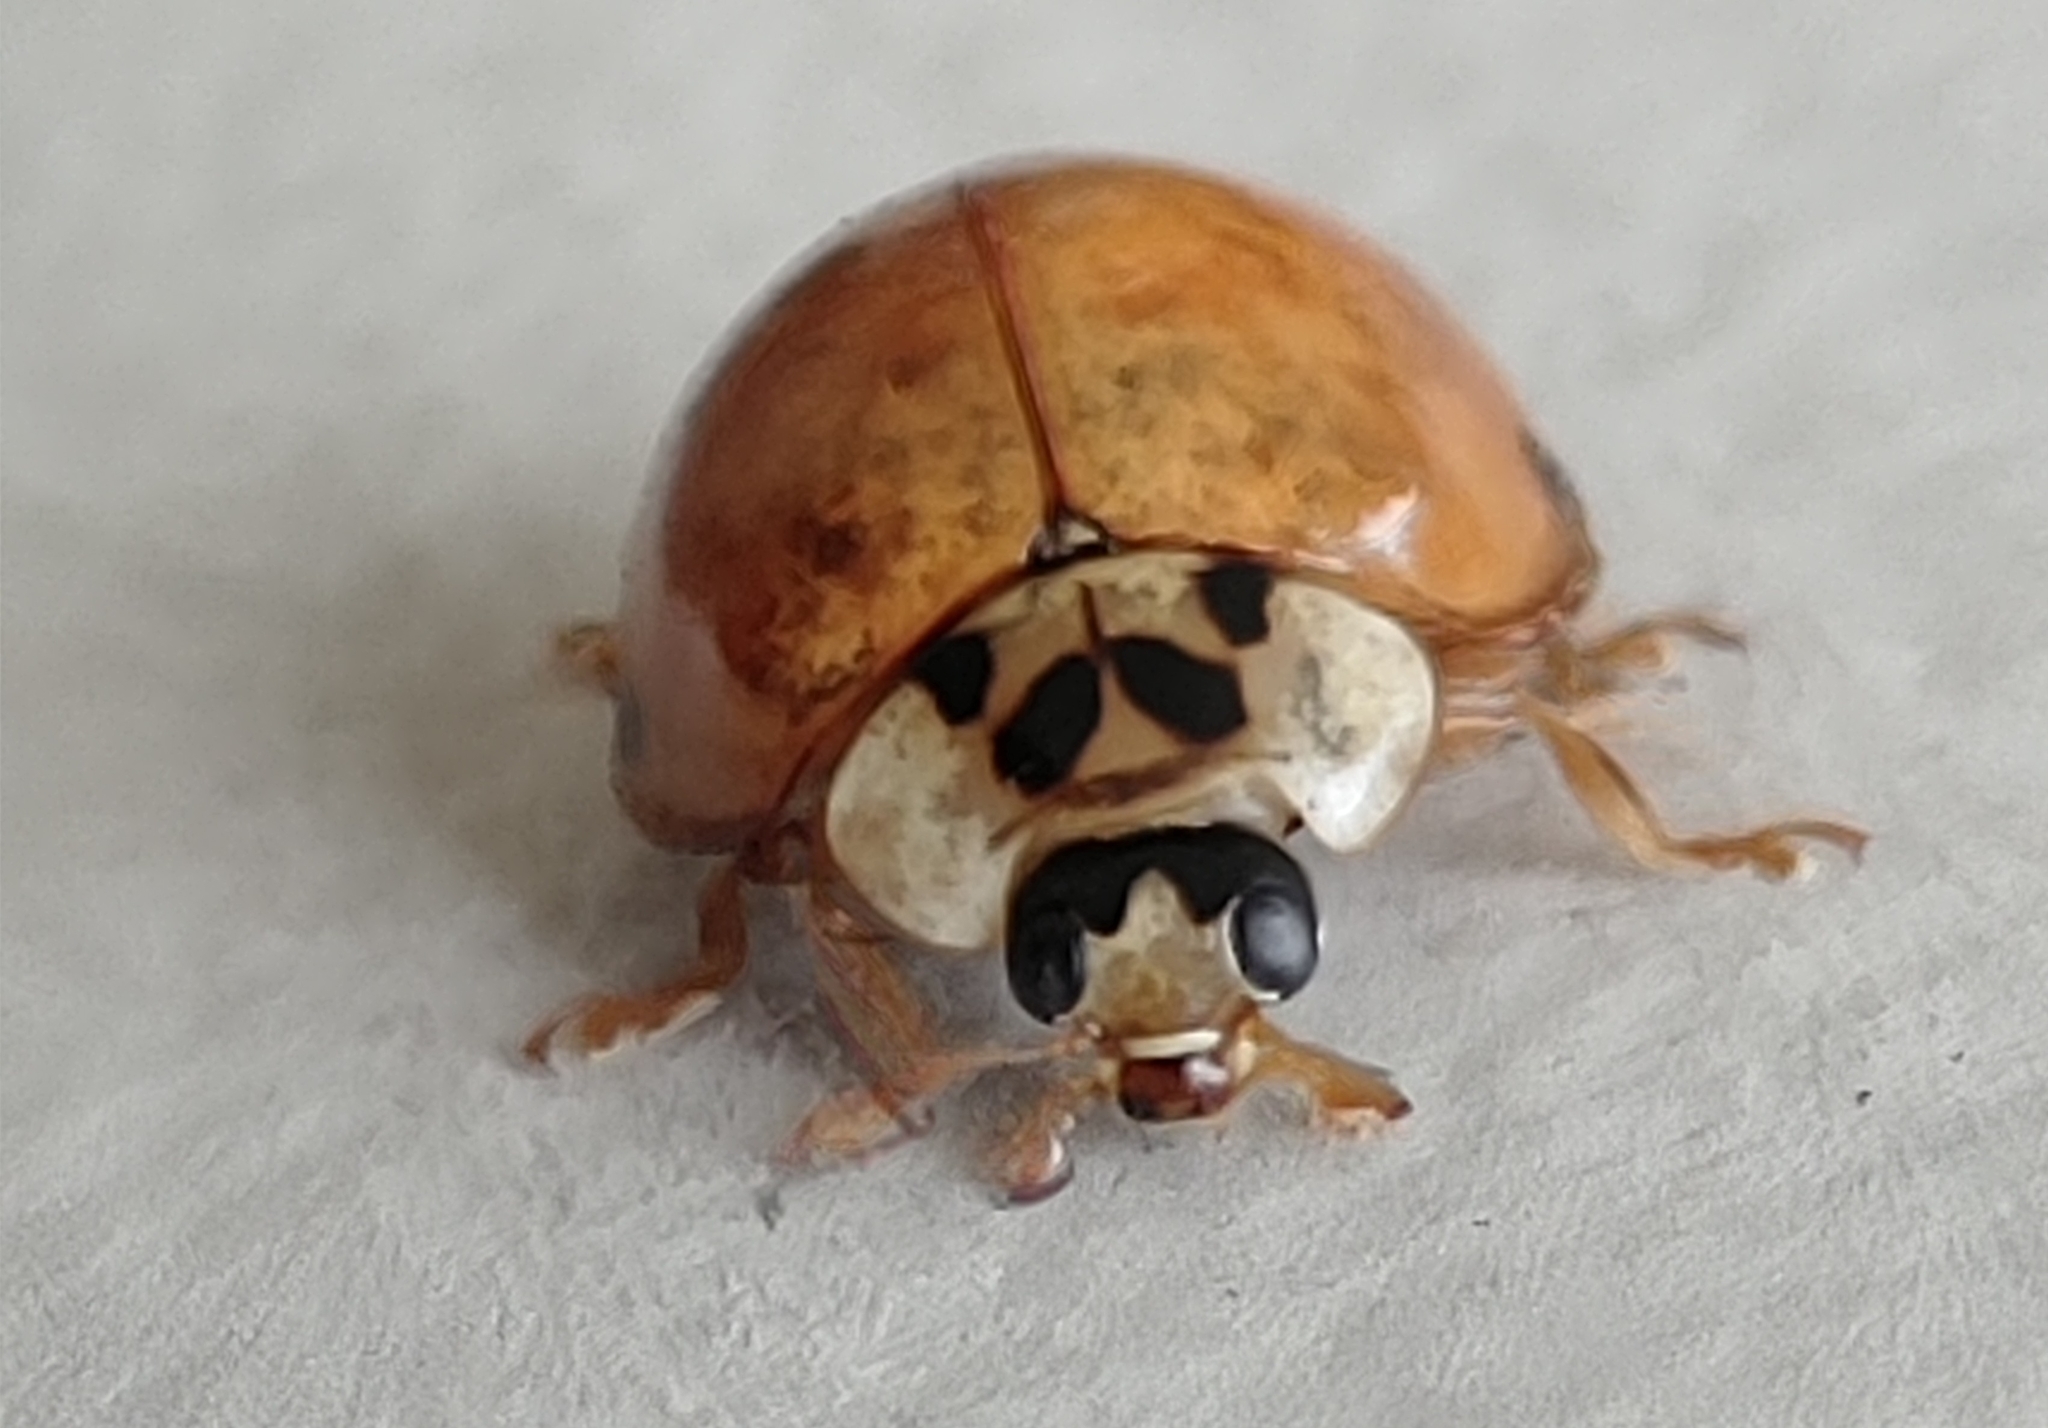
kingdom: Animalia
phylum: Arthropoda
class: Insecta
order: Coleoptera
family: Coccinellidae
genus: Harmonia
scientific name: Harmonia axyridis
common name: Harlequin ladybird
